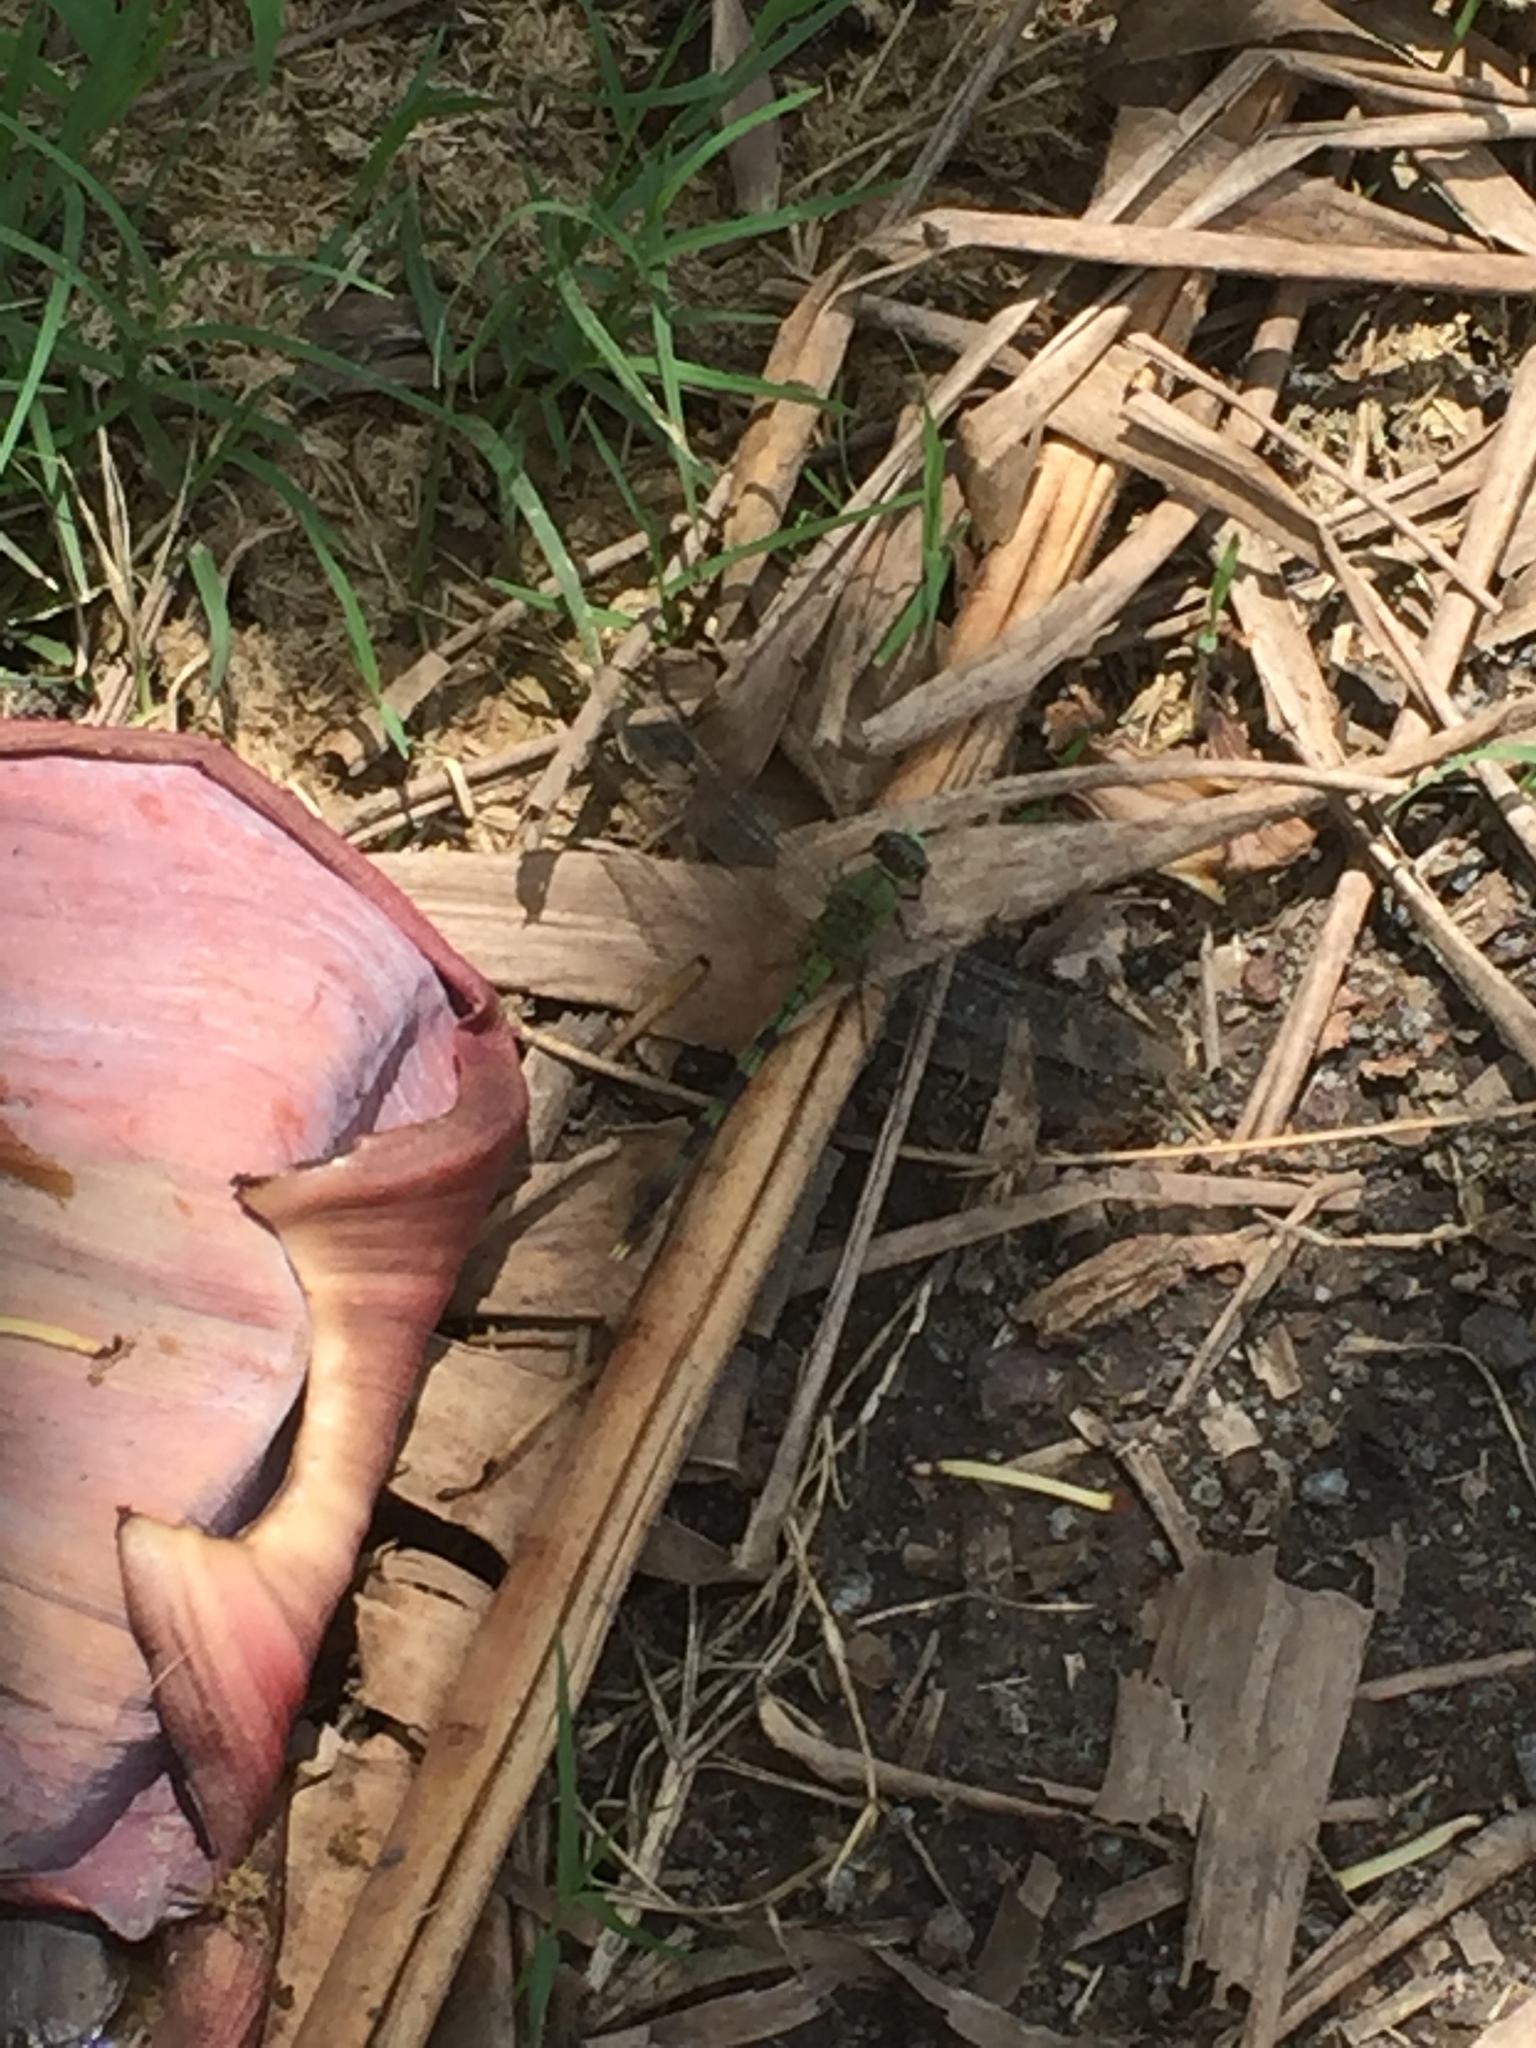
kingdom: Animalia
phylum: Arthropoda
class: Insecta
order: Odonata
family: Libellulidae
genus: Erythemis
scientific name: Erythemis vesiculosa
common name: Great pondhawk
